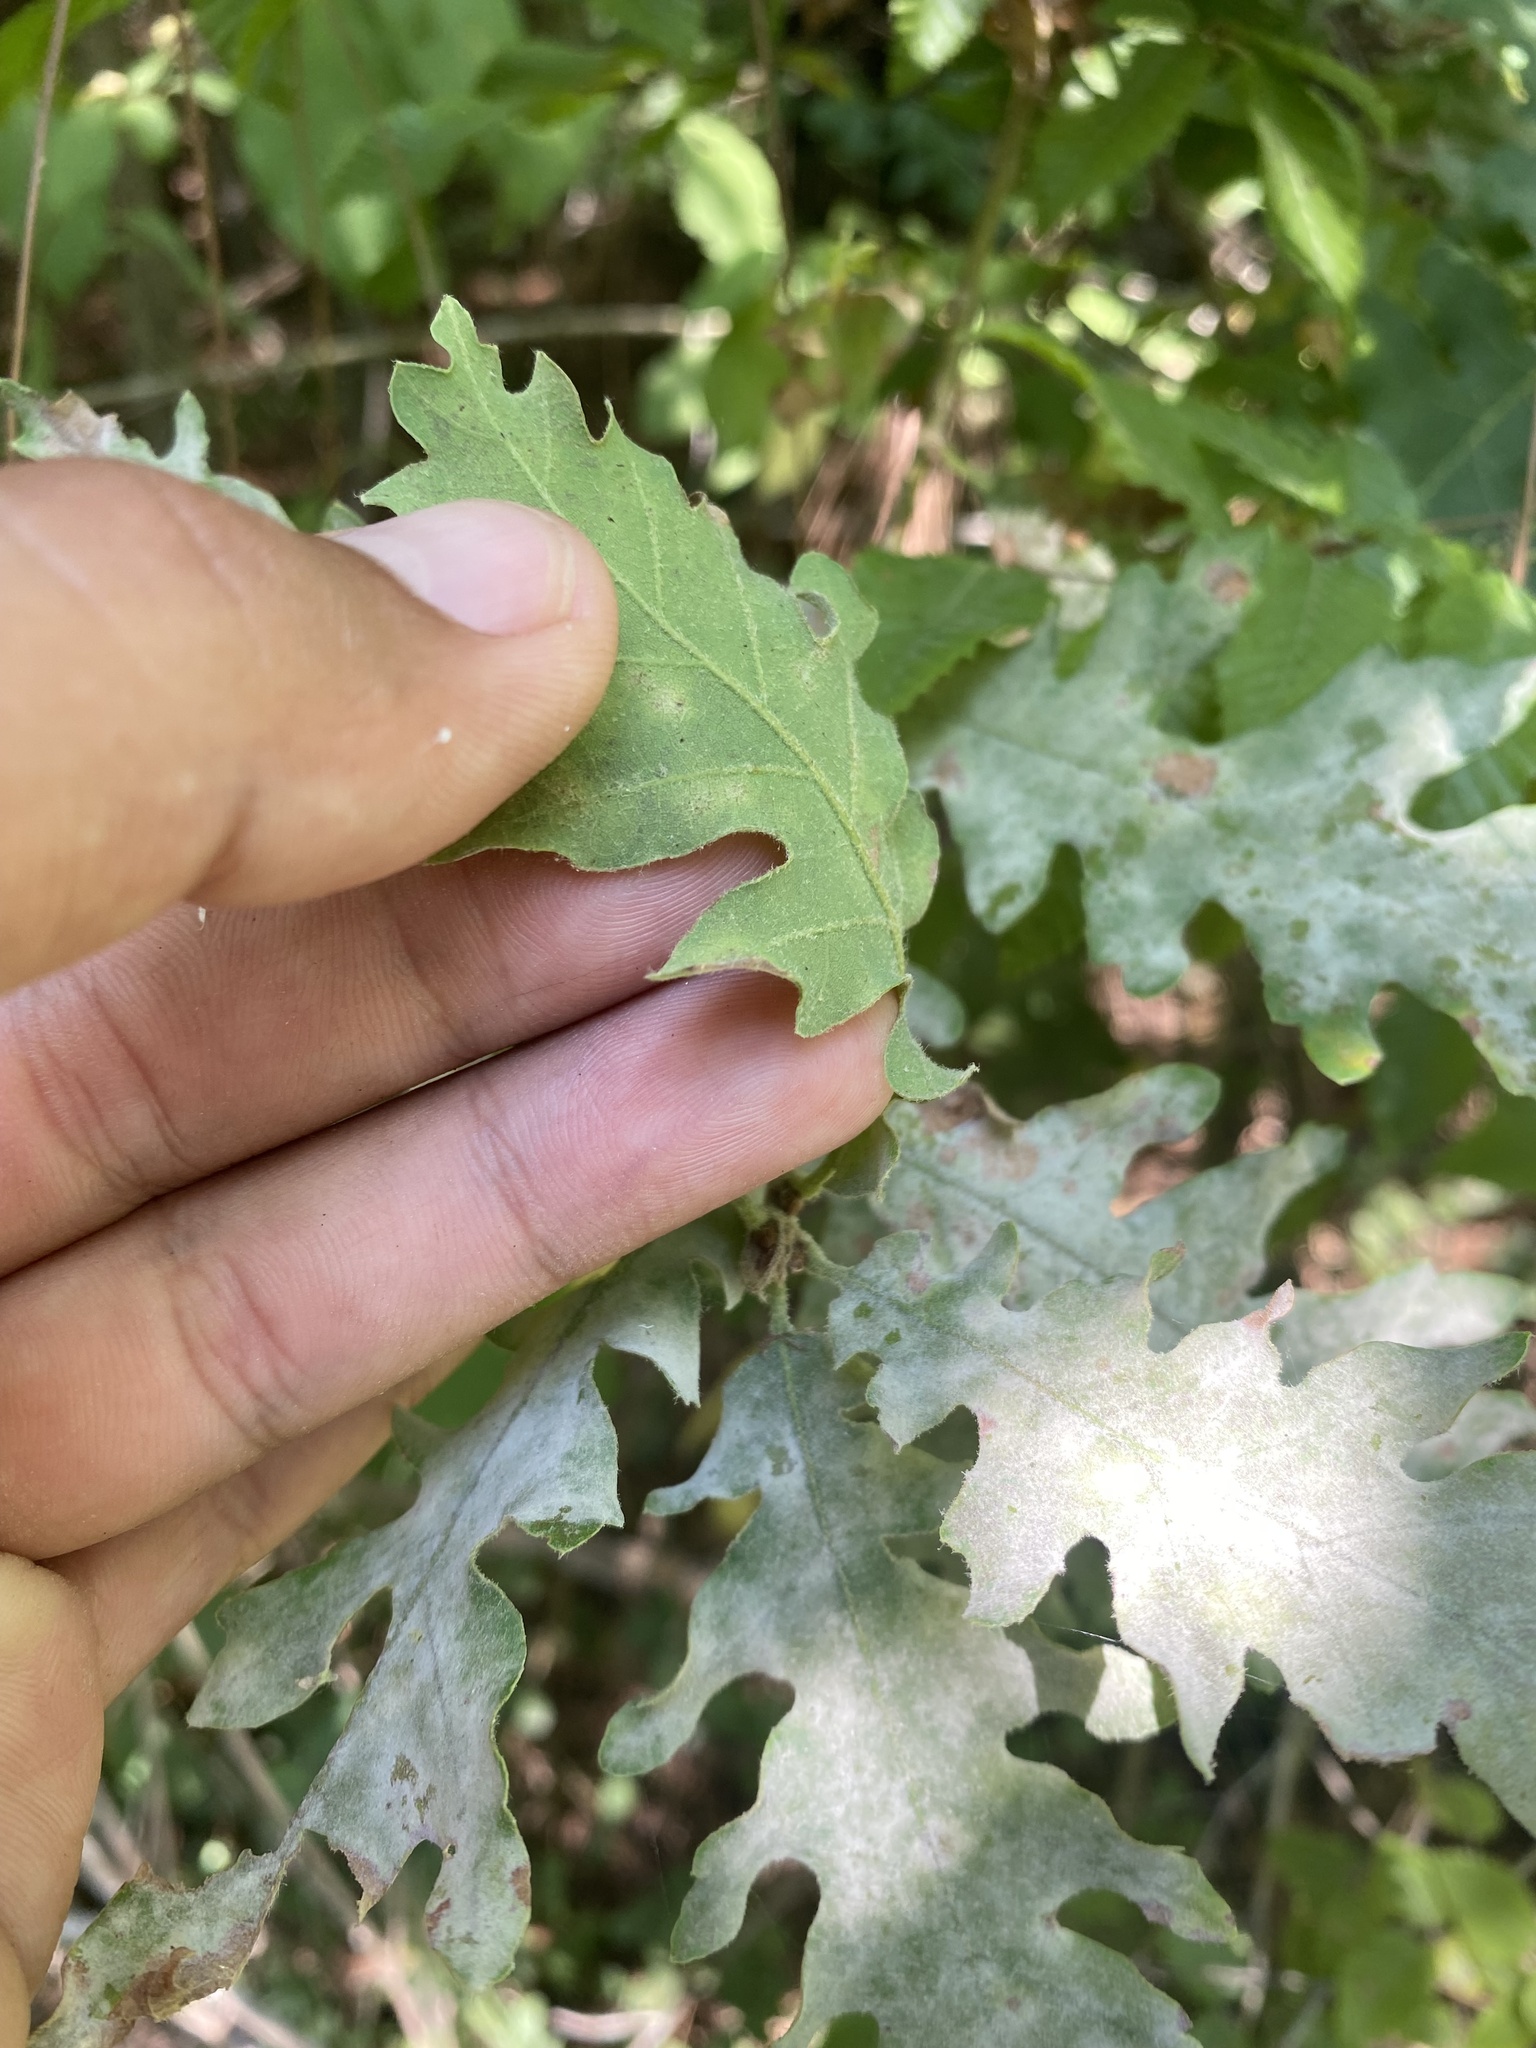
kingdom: Plantae
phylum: Tracheophyta
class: Magnoliopsida
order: Fagales
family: Fagaceae
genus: Quercus
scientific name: Quercus pubescens
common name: Downy oak
